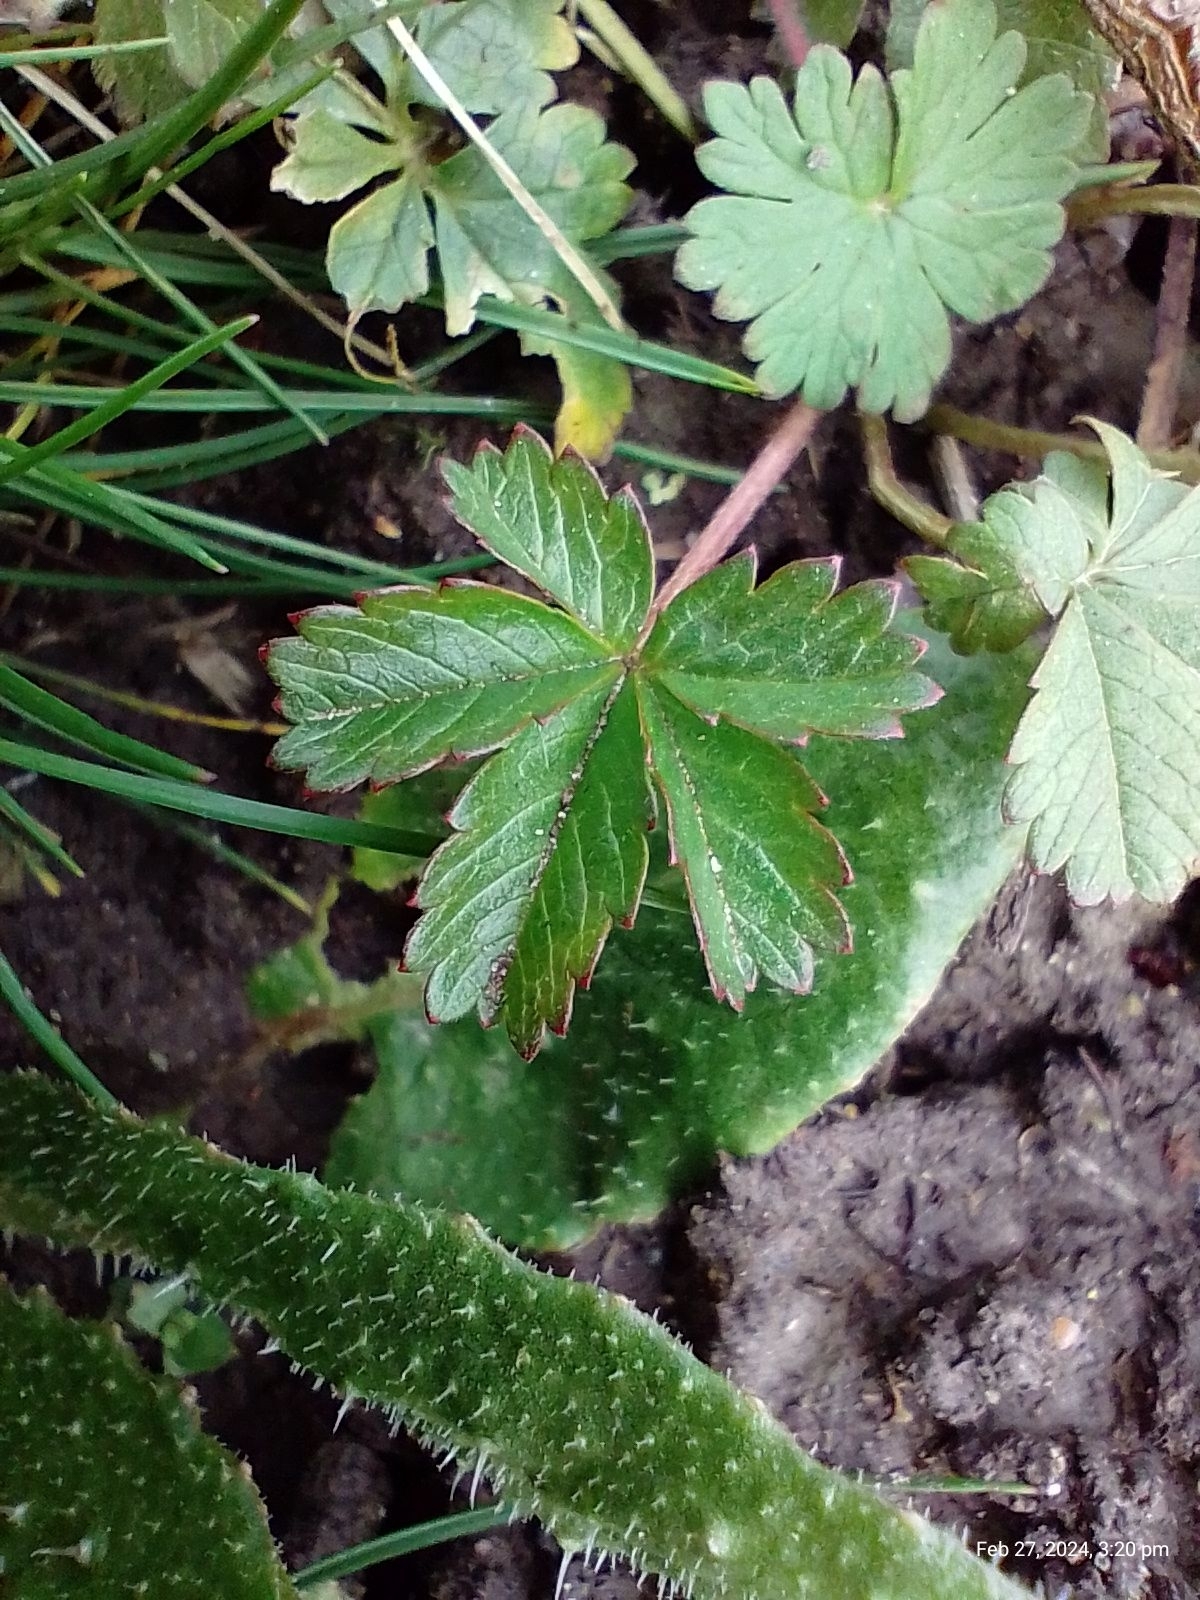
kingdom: Plantae
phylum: Tracheophyta
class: Magnoliopsida
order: Rosales
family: Rosaceae
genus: Potentilla
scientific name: Potentilla reptans
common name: Creeping cinquefoil
